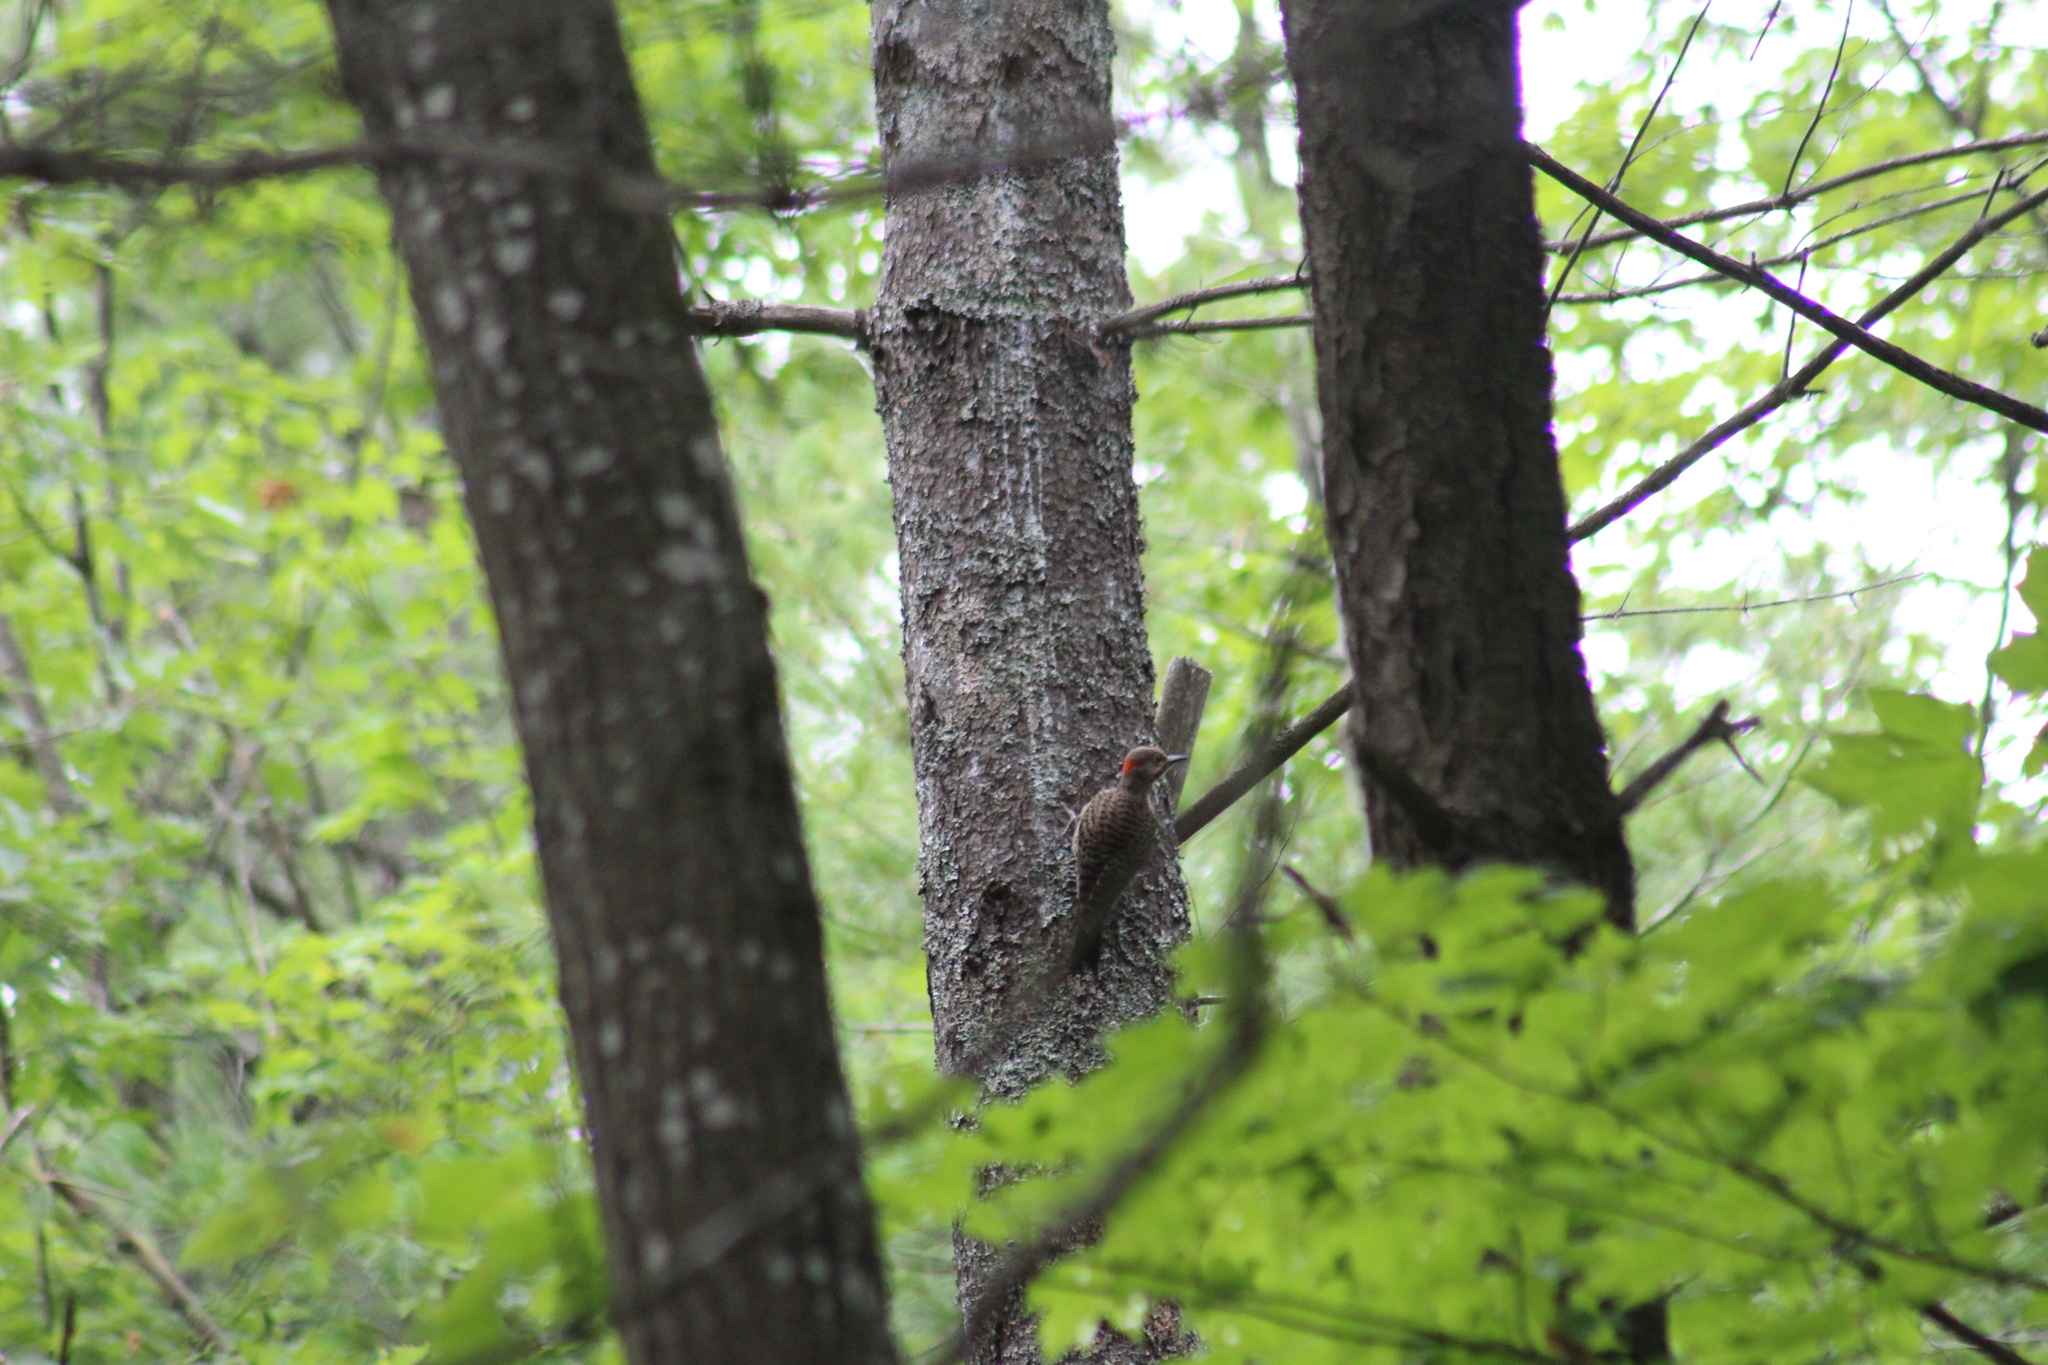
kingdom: Animalia
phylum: Chordata
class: Aves
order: Piciformes
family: Picidae
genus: Colaptes
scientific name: Colaptes auratus
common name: Northern flicker
